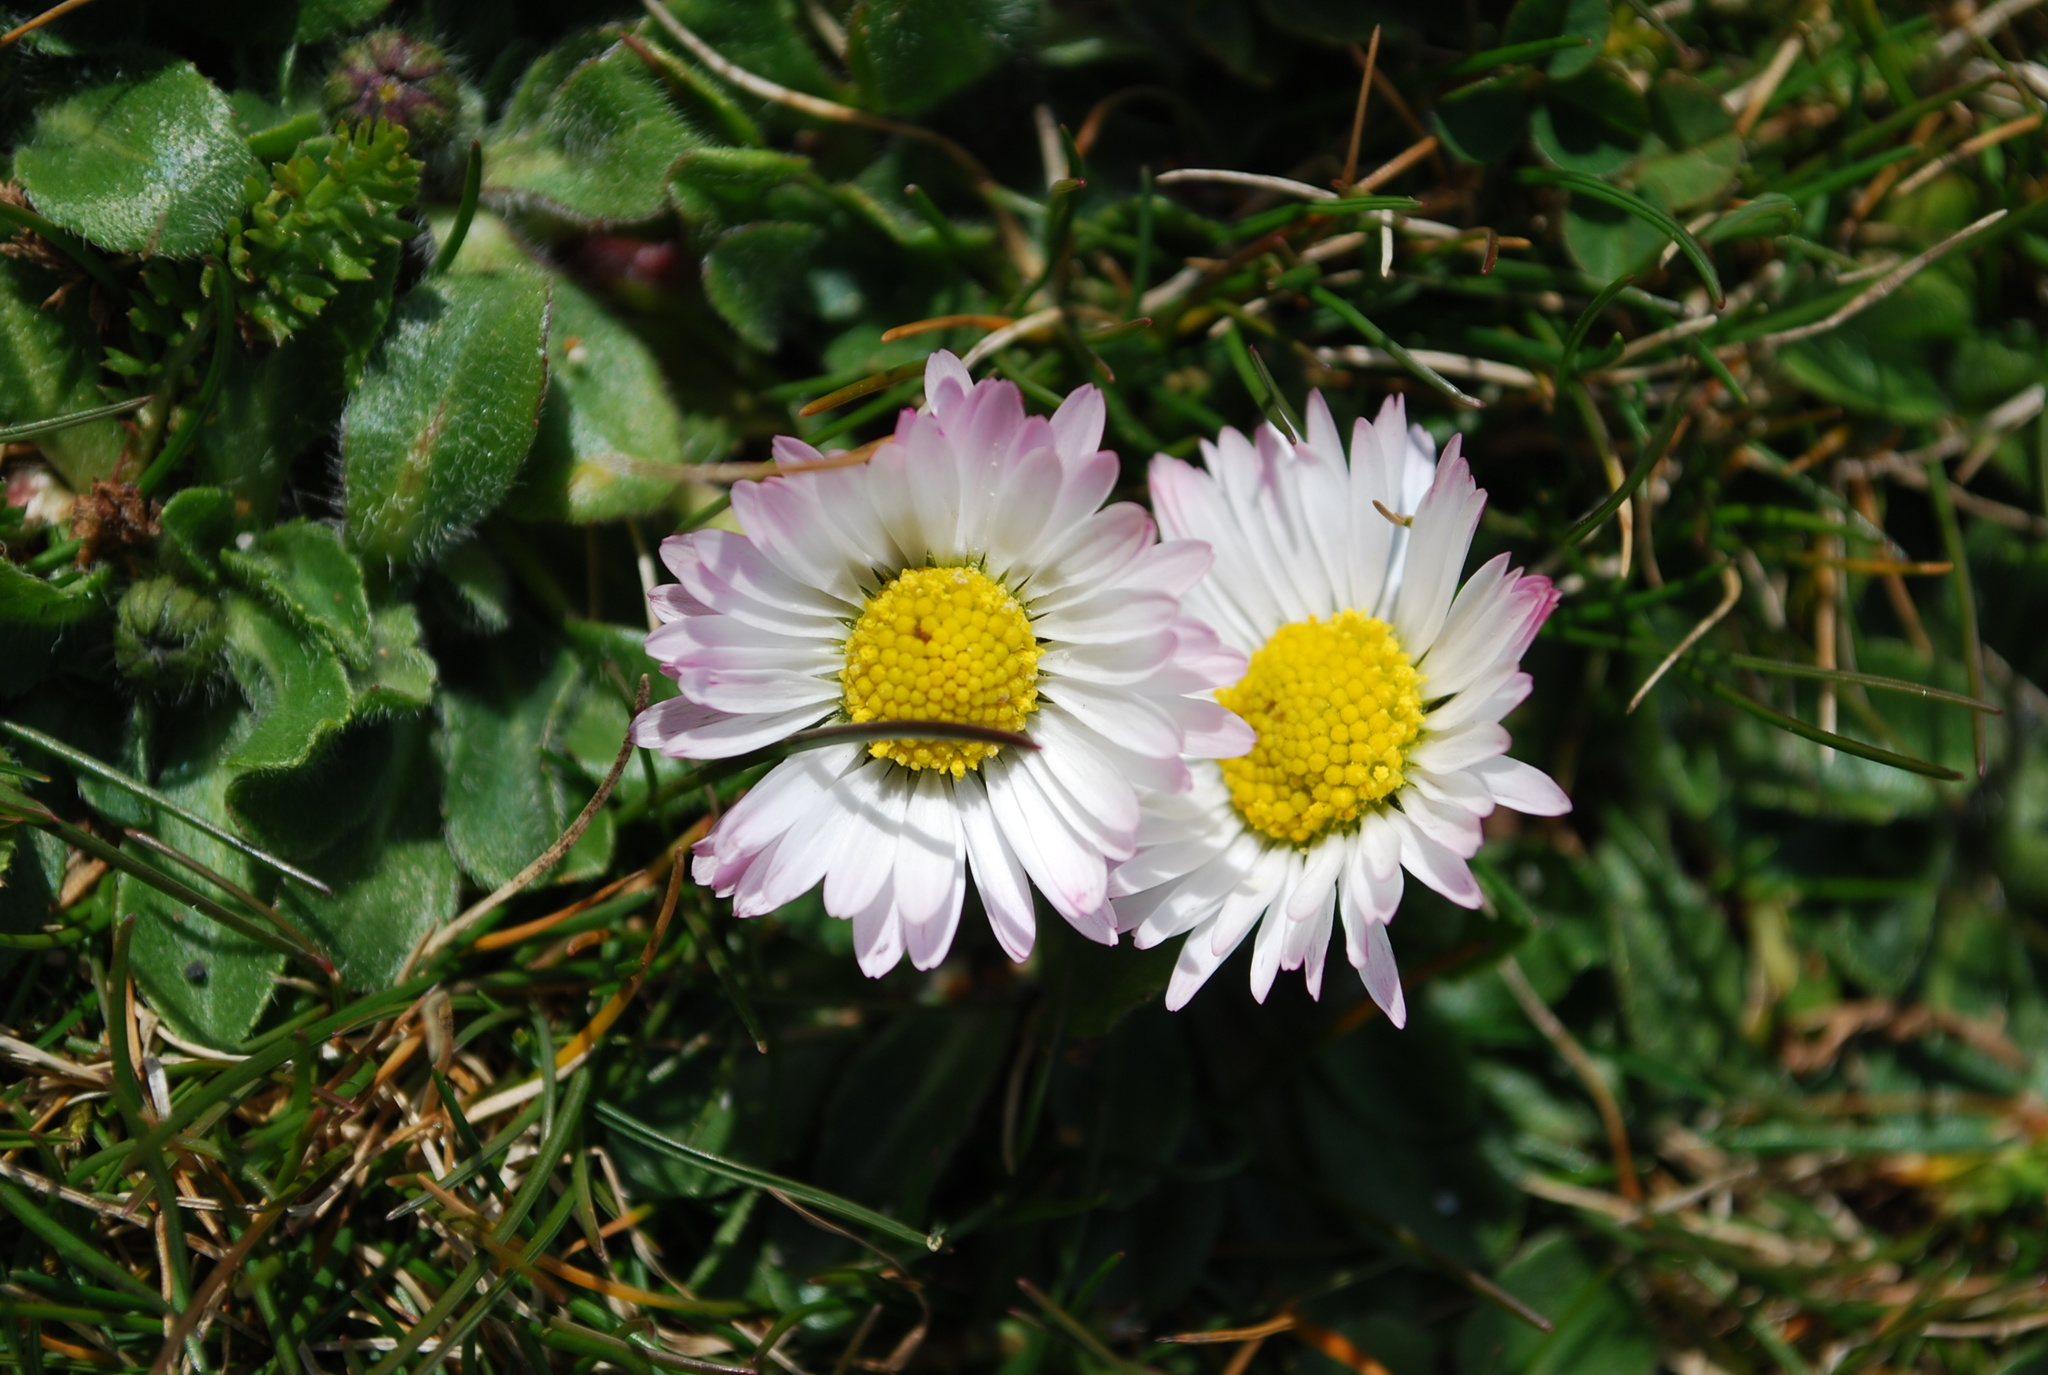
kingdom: Plantae
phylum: Tracheophyta
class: Magnoliopsida
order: Asterales
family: Asteraceae
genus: Bellis
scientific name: Bellis perennis
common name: Lawndaisy
